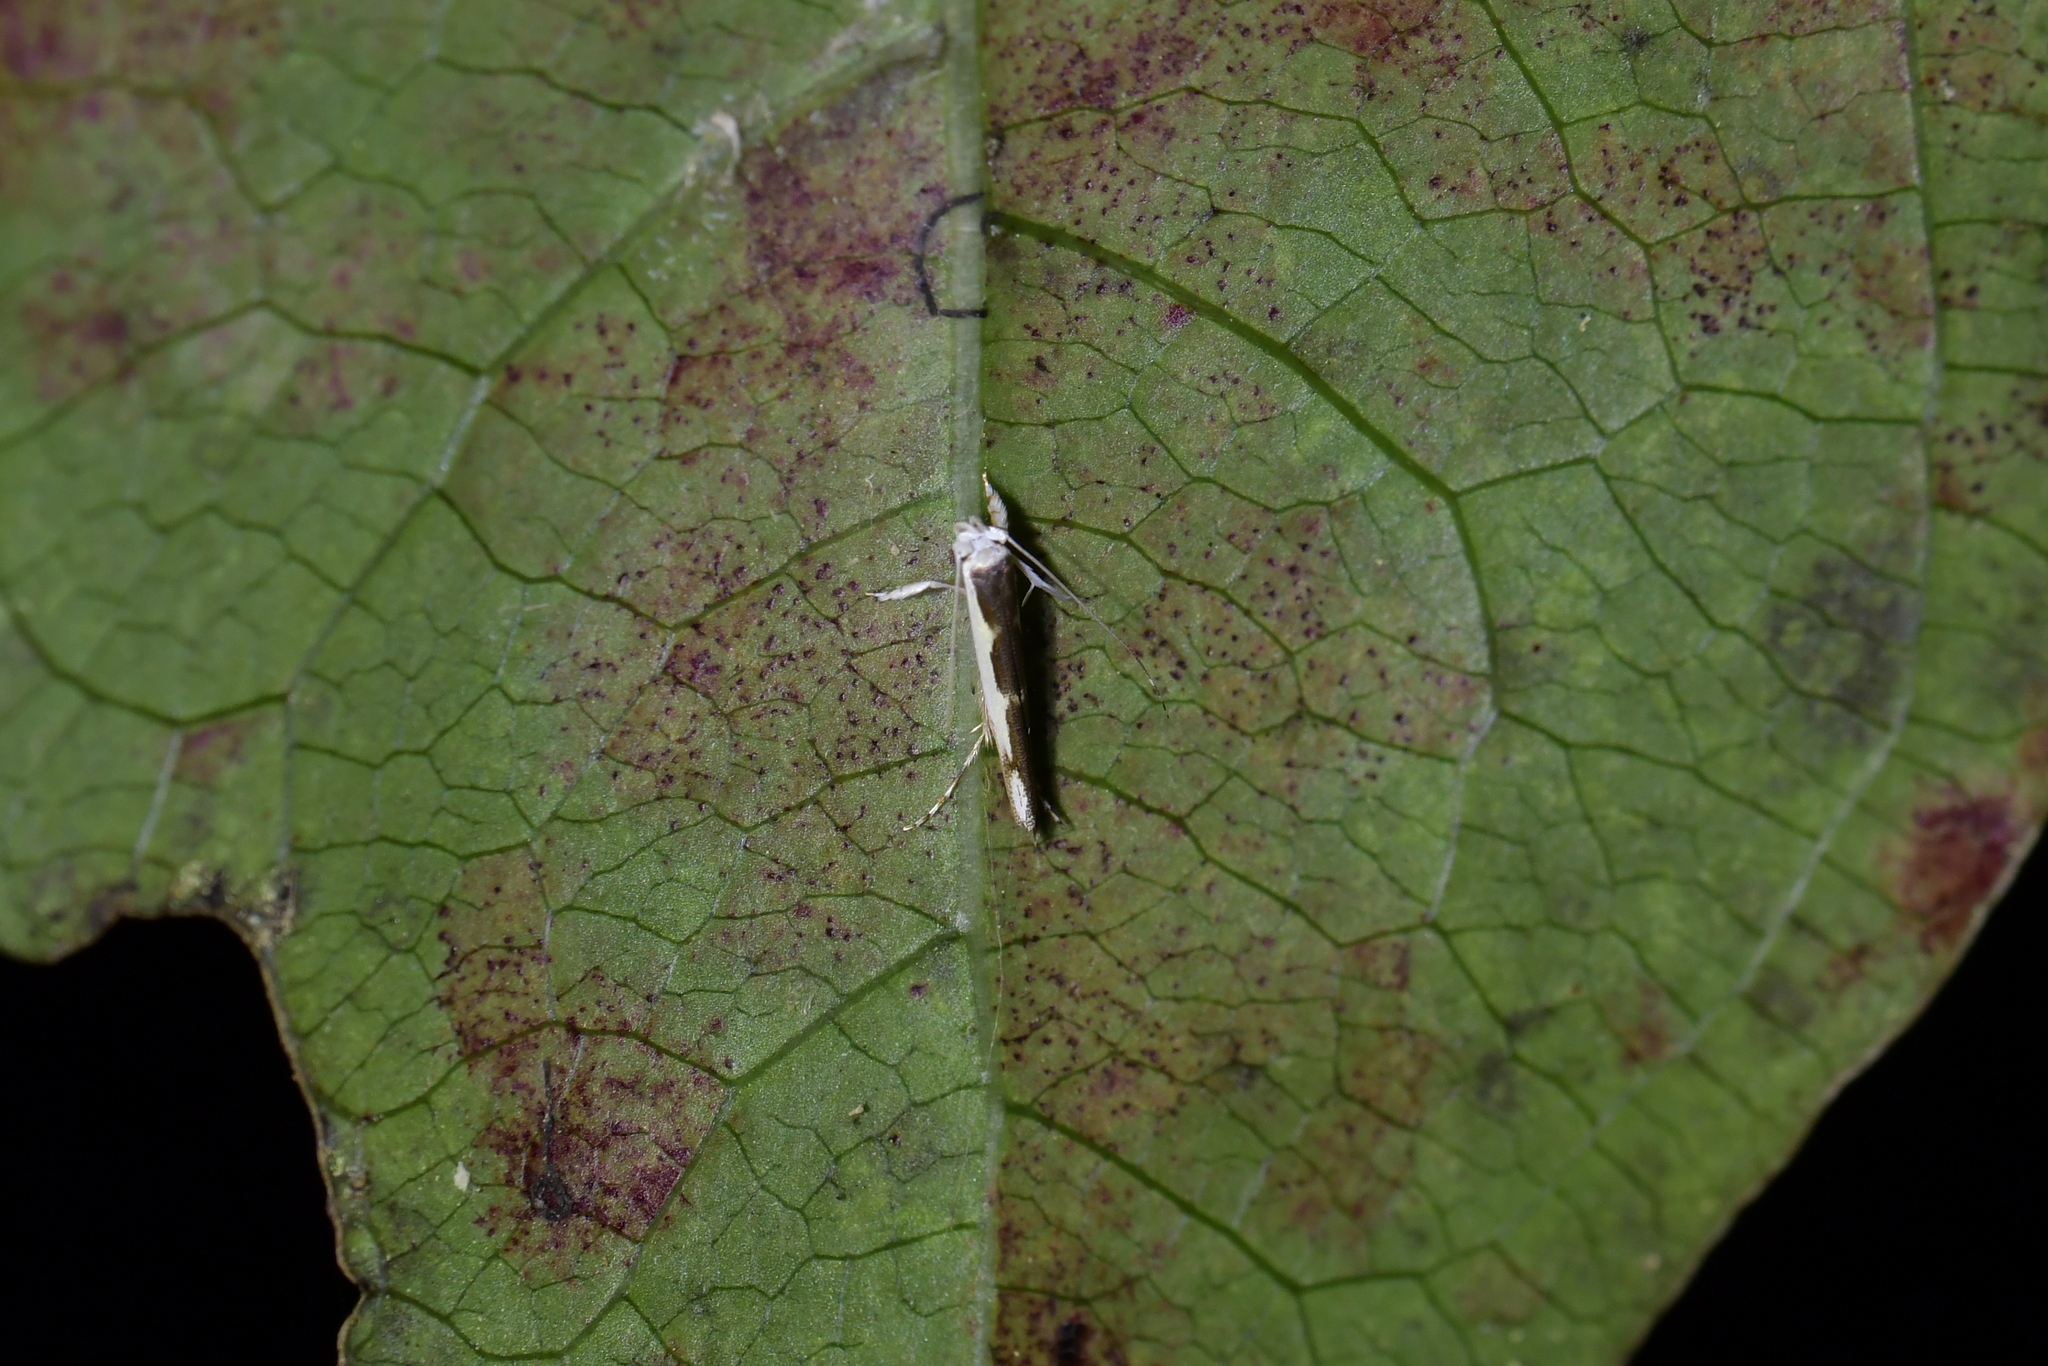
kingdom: Animalia
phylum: Arthropoda
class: Insecta
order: Lepidoptera
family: Roeslerstammiidae
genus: Vanicela
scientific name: Vanicela disjunctella
